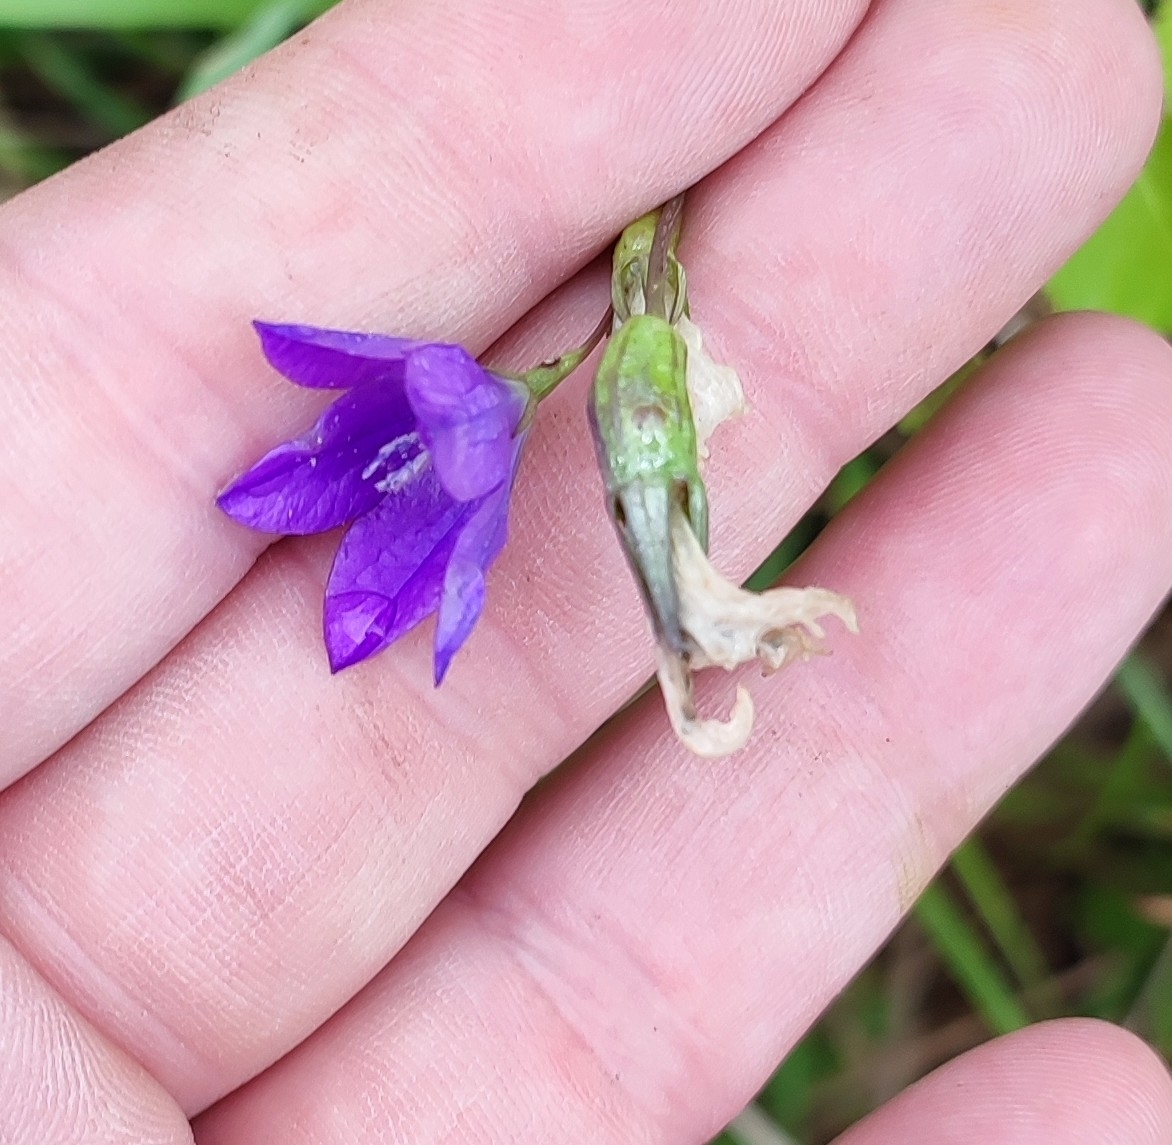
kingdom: Plantae
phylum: Tracheophyta
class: Magnoliopsida
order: Asterales
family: Campanulaceae
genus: Campanula
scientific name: Campanula stevenii
